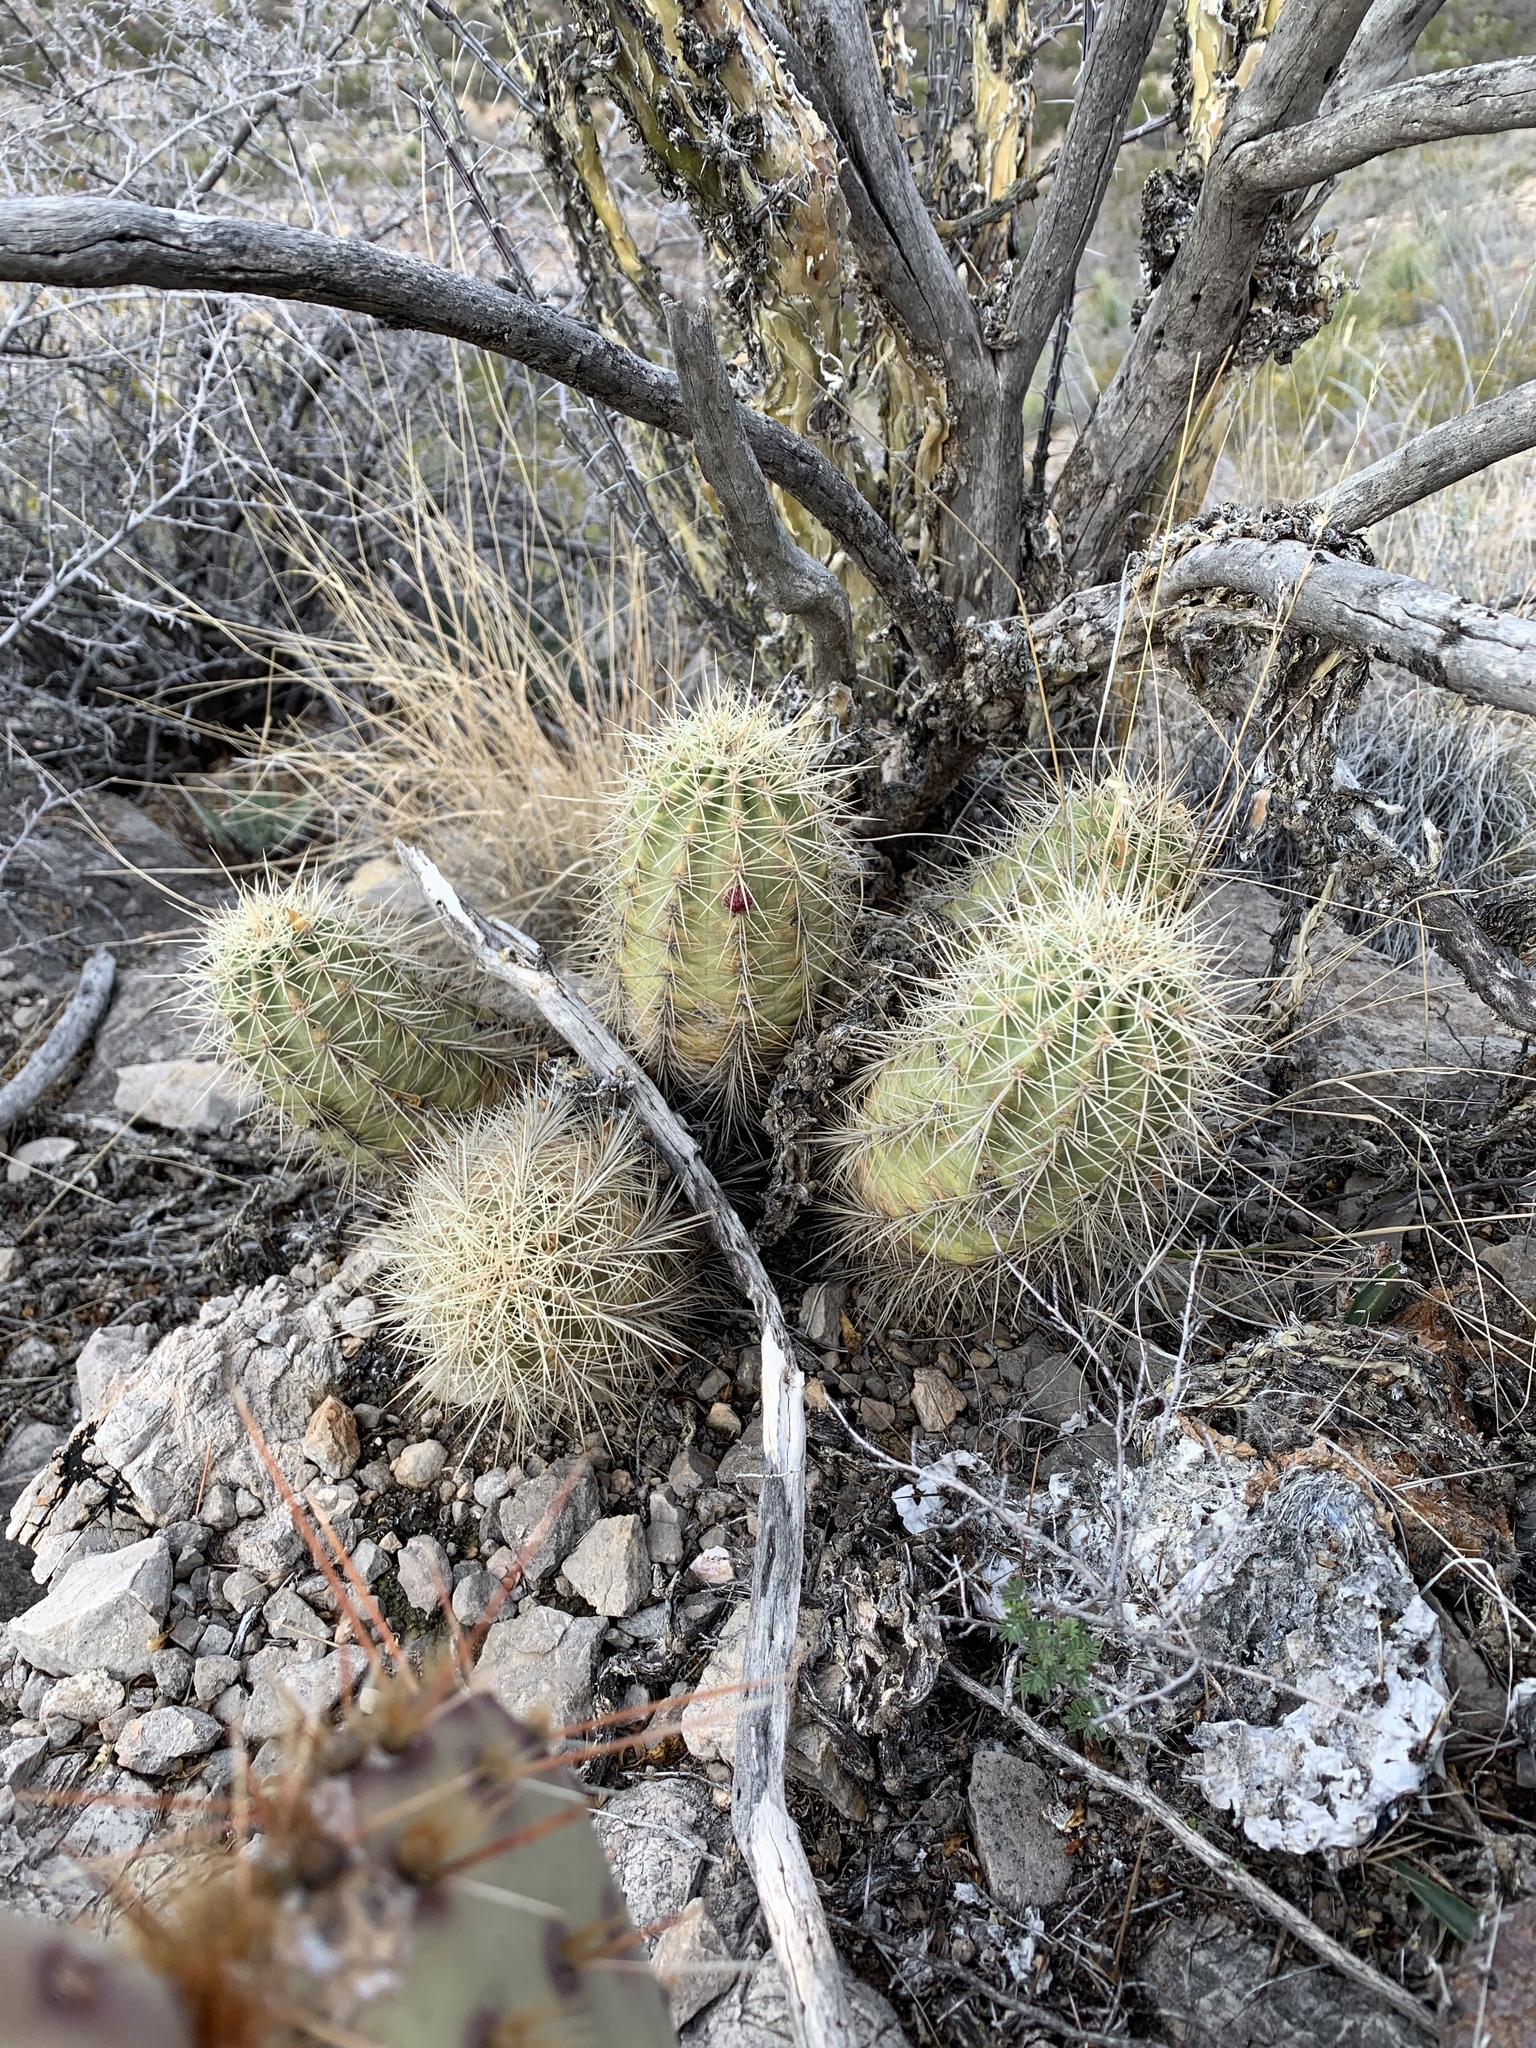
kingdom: Plantae
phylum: Tracheophyta
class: Magnoliopsida
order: Caryophyllales
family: Cactaceae
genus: Echinocereus
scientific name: Echinocereus coccineus
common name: Scarlet hedgehog cactus
